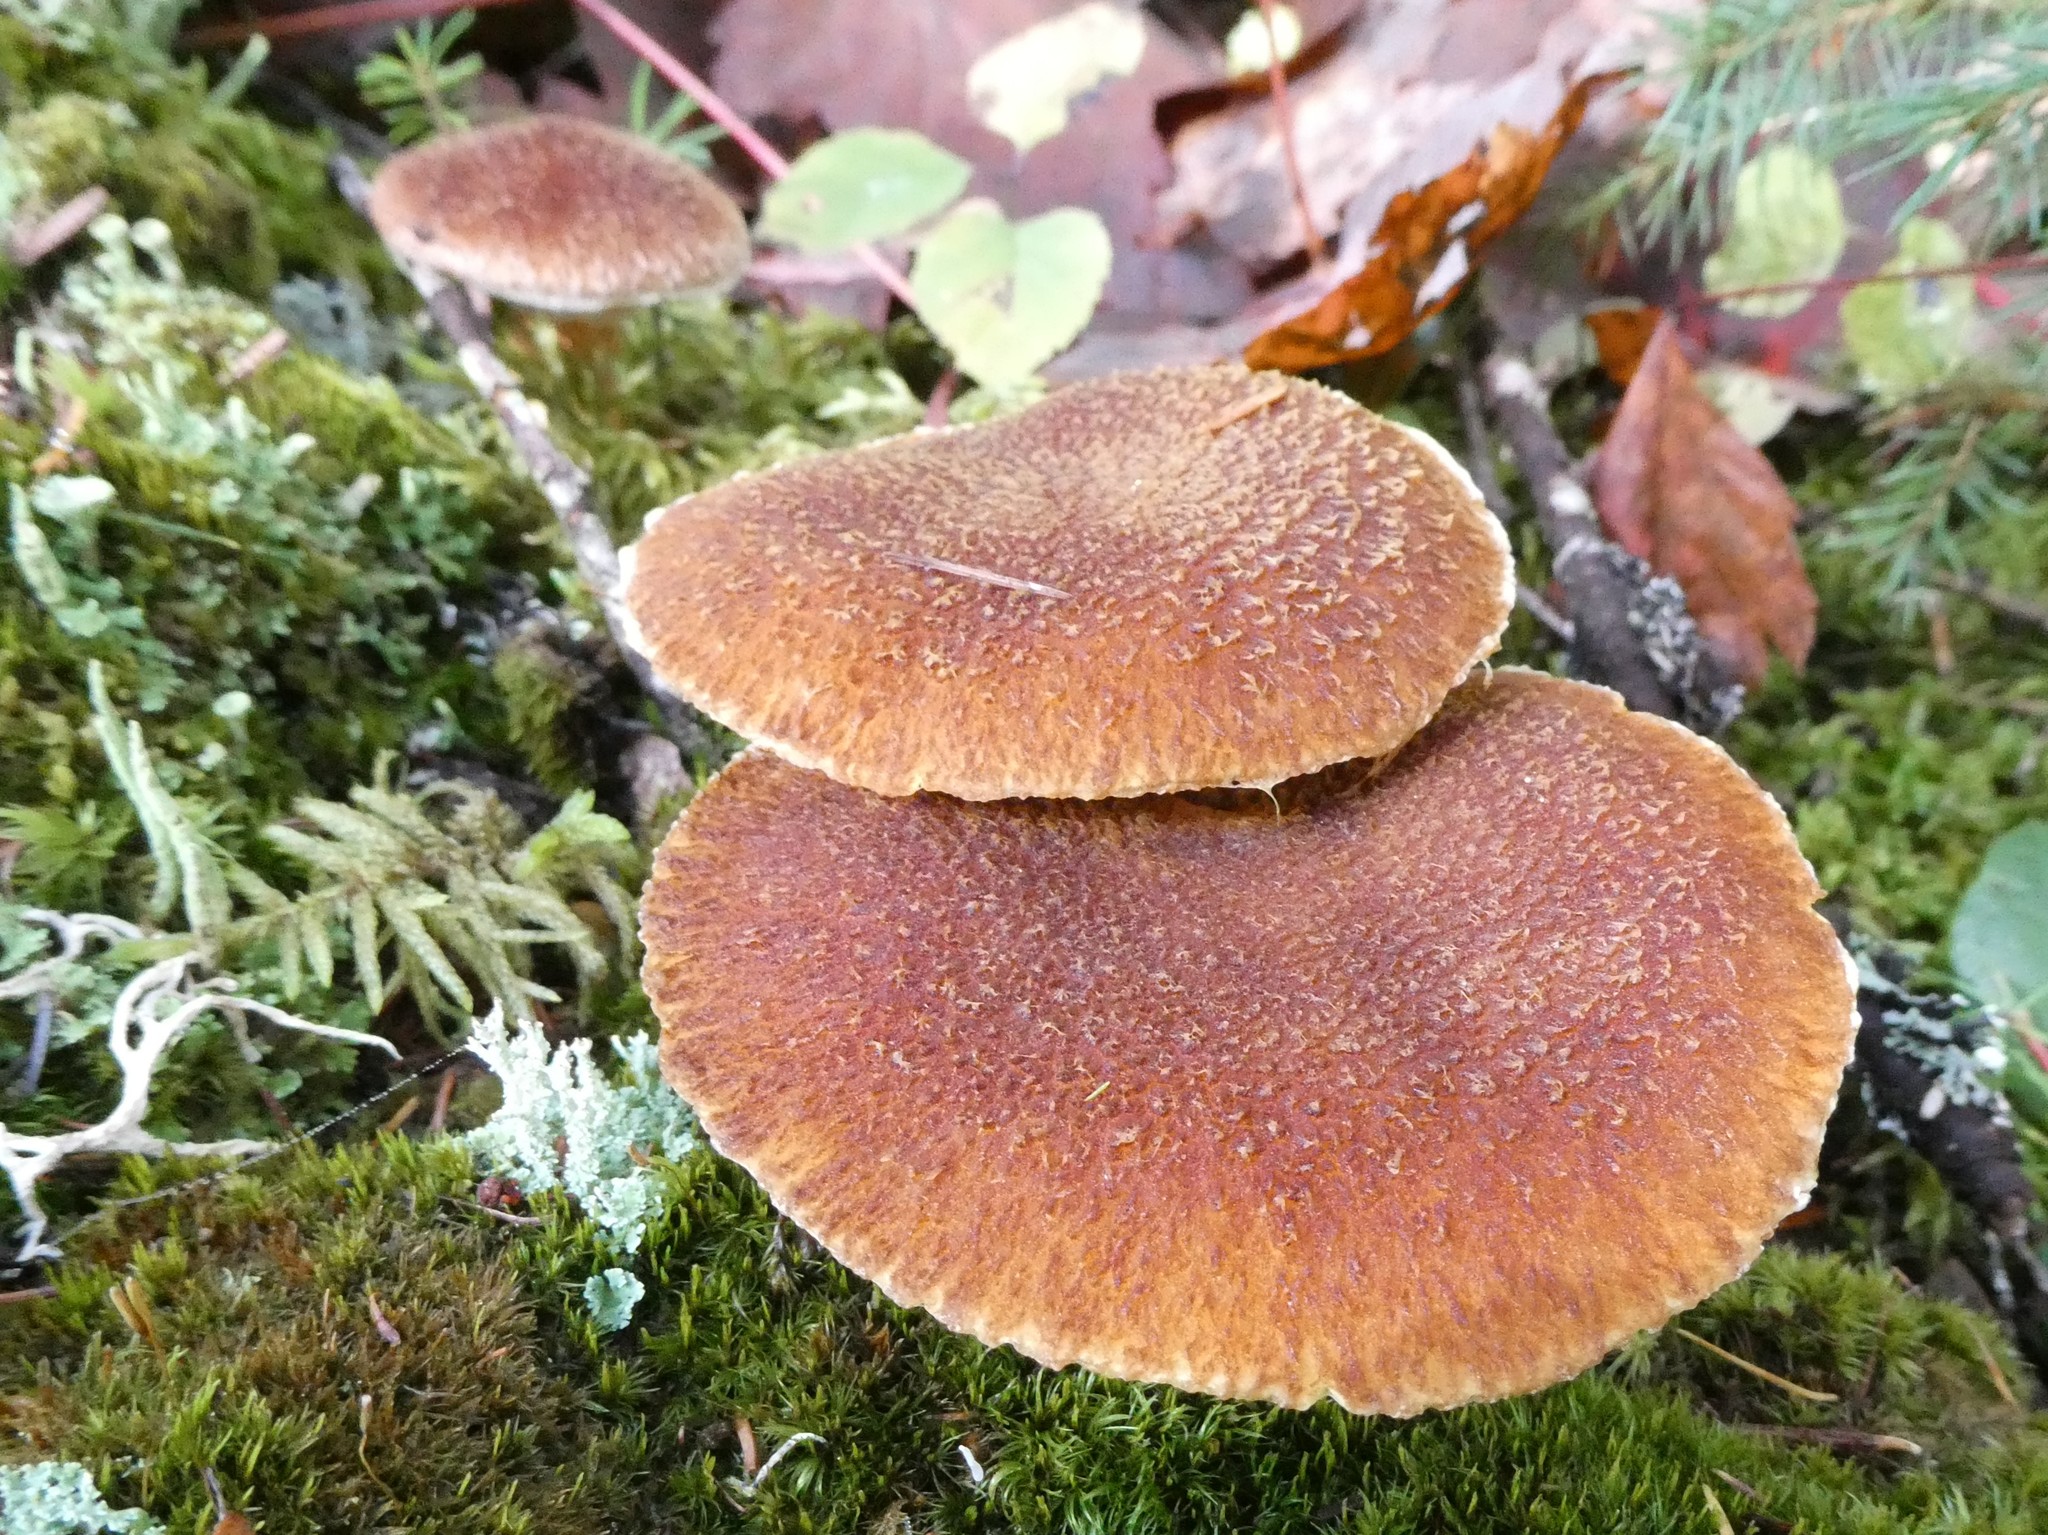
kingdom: Fungi
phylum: Basidiomycota
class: Agaricomycetes
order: Boletales
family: Suillaceae
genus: Boletinus
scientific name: Boletinus ampliporus
